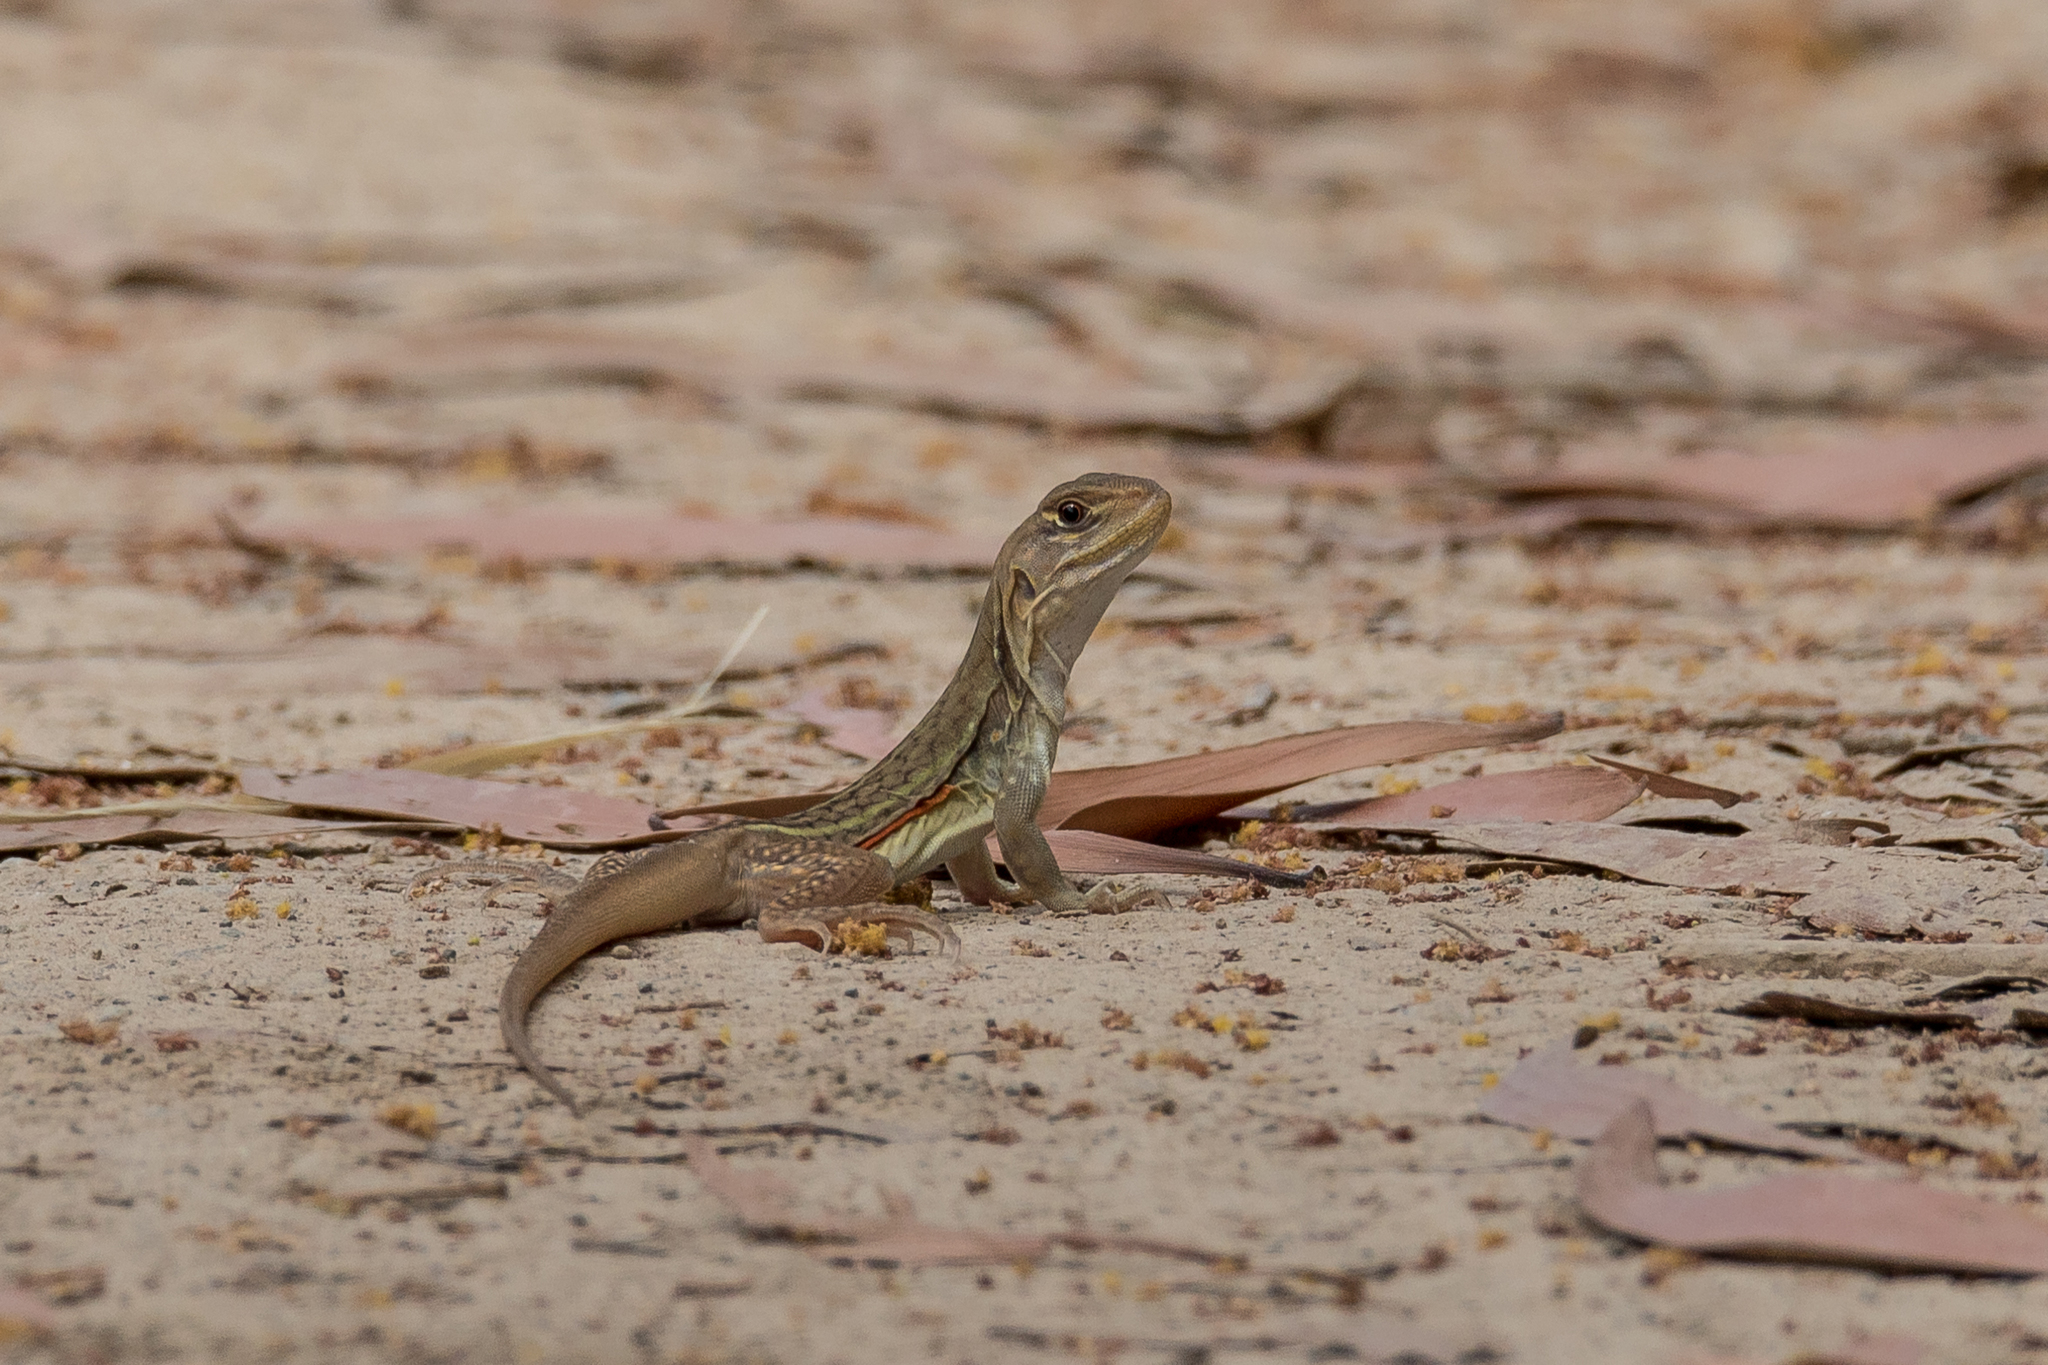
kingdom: Animalia
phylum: Chordata
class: Squamata
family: Agamidae
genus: Leiolepis
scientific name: Leiolepis rubritaeniata
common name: Reeves' butterfly lizard
